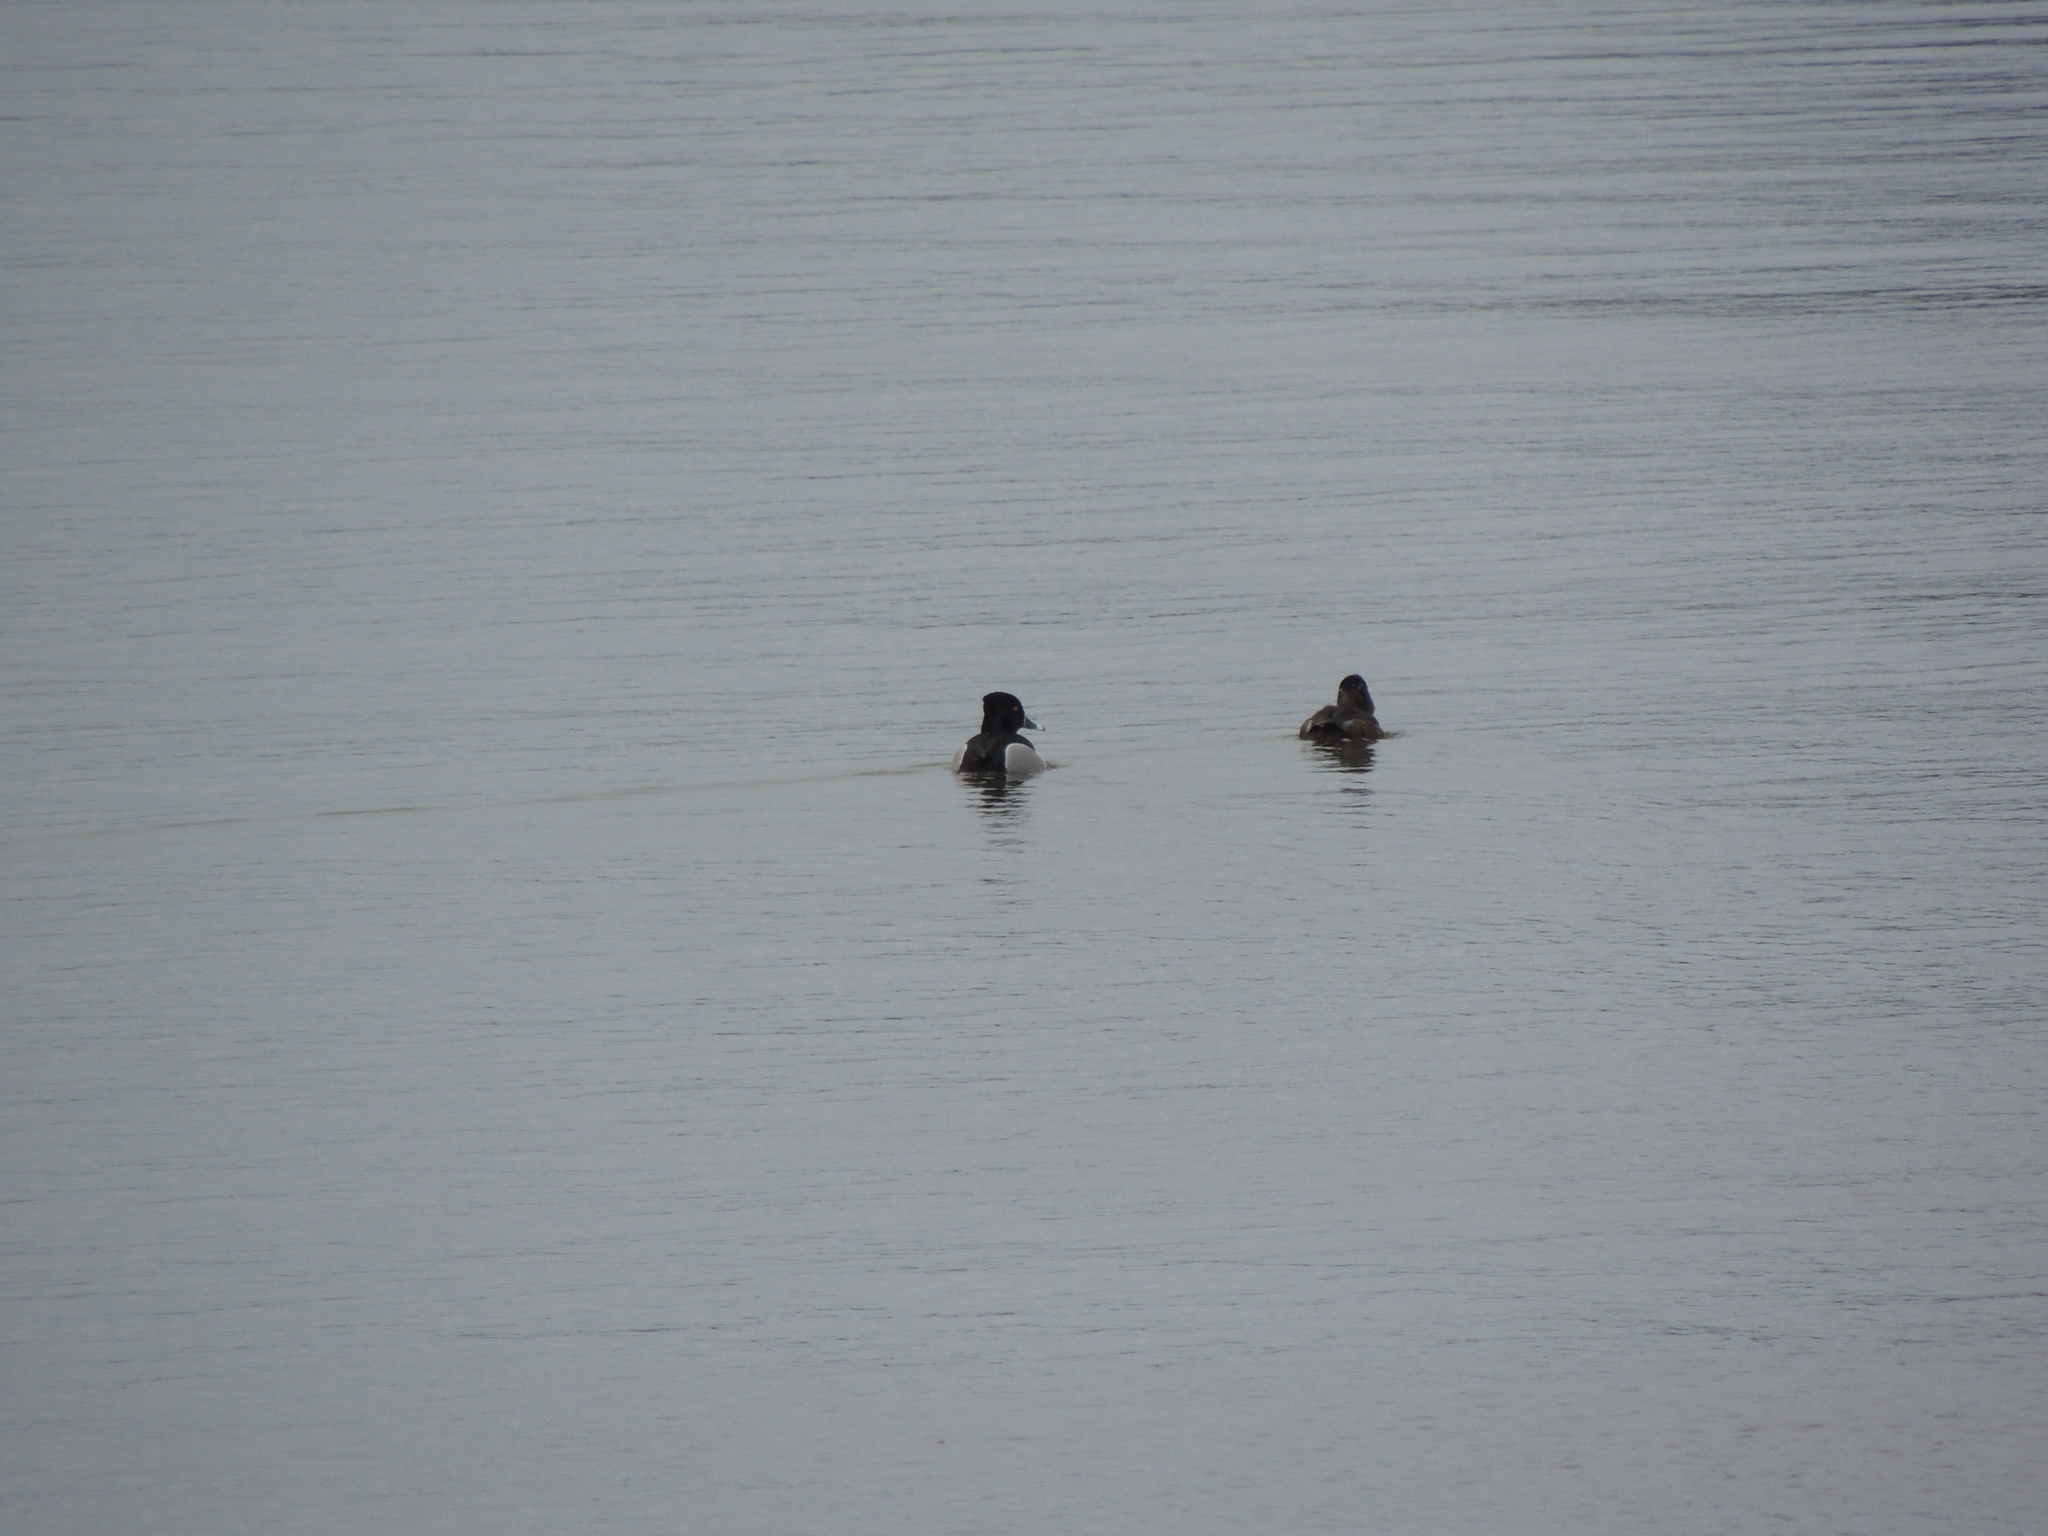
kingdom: Animalia
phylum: Chordata
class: Aves
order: Anseriformes
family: Anatidae
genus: Aythya
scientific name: Aythya collaris
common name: Ring-necked duck
